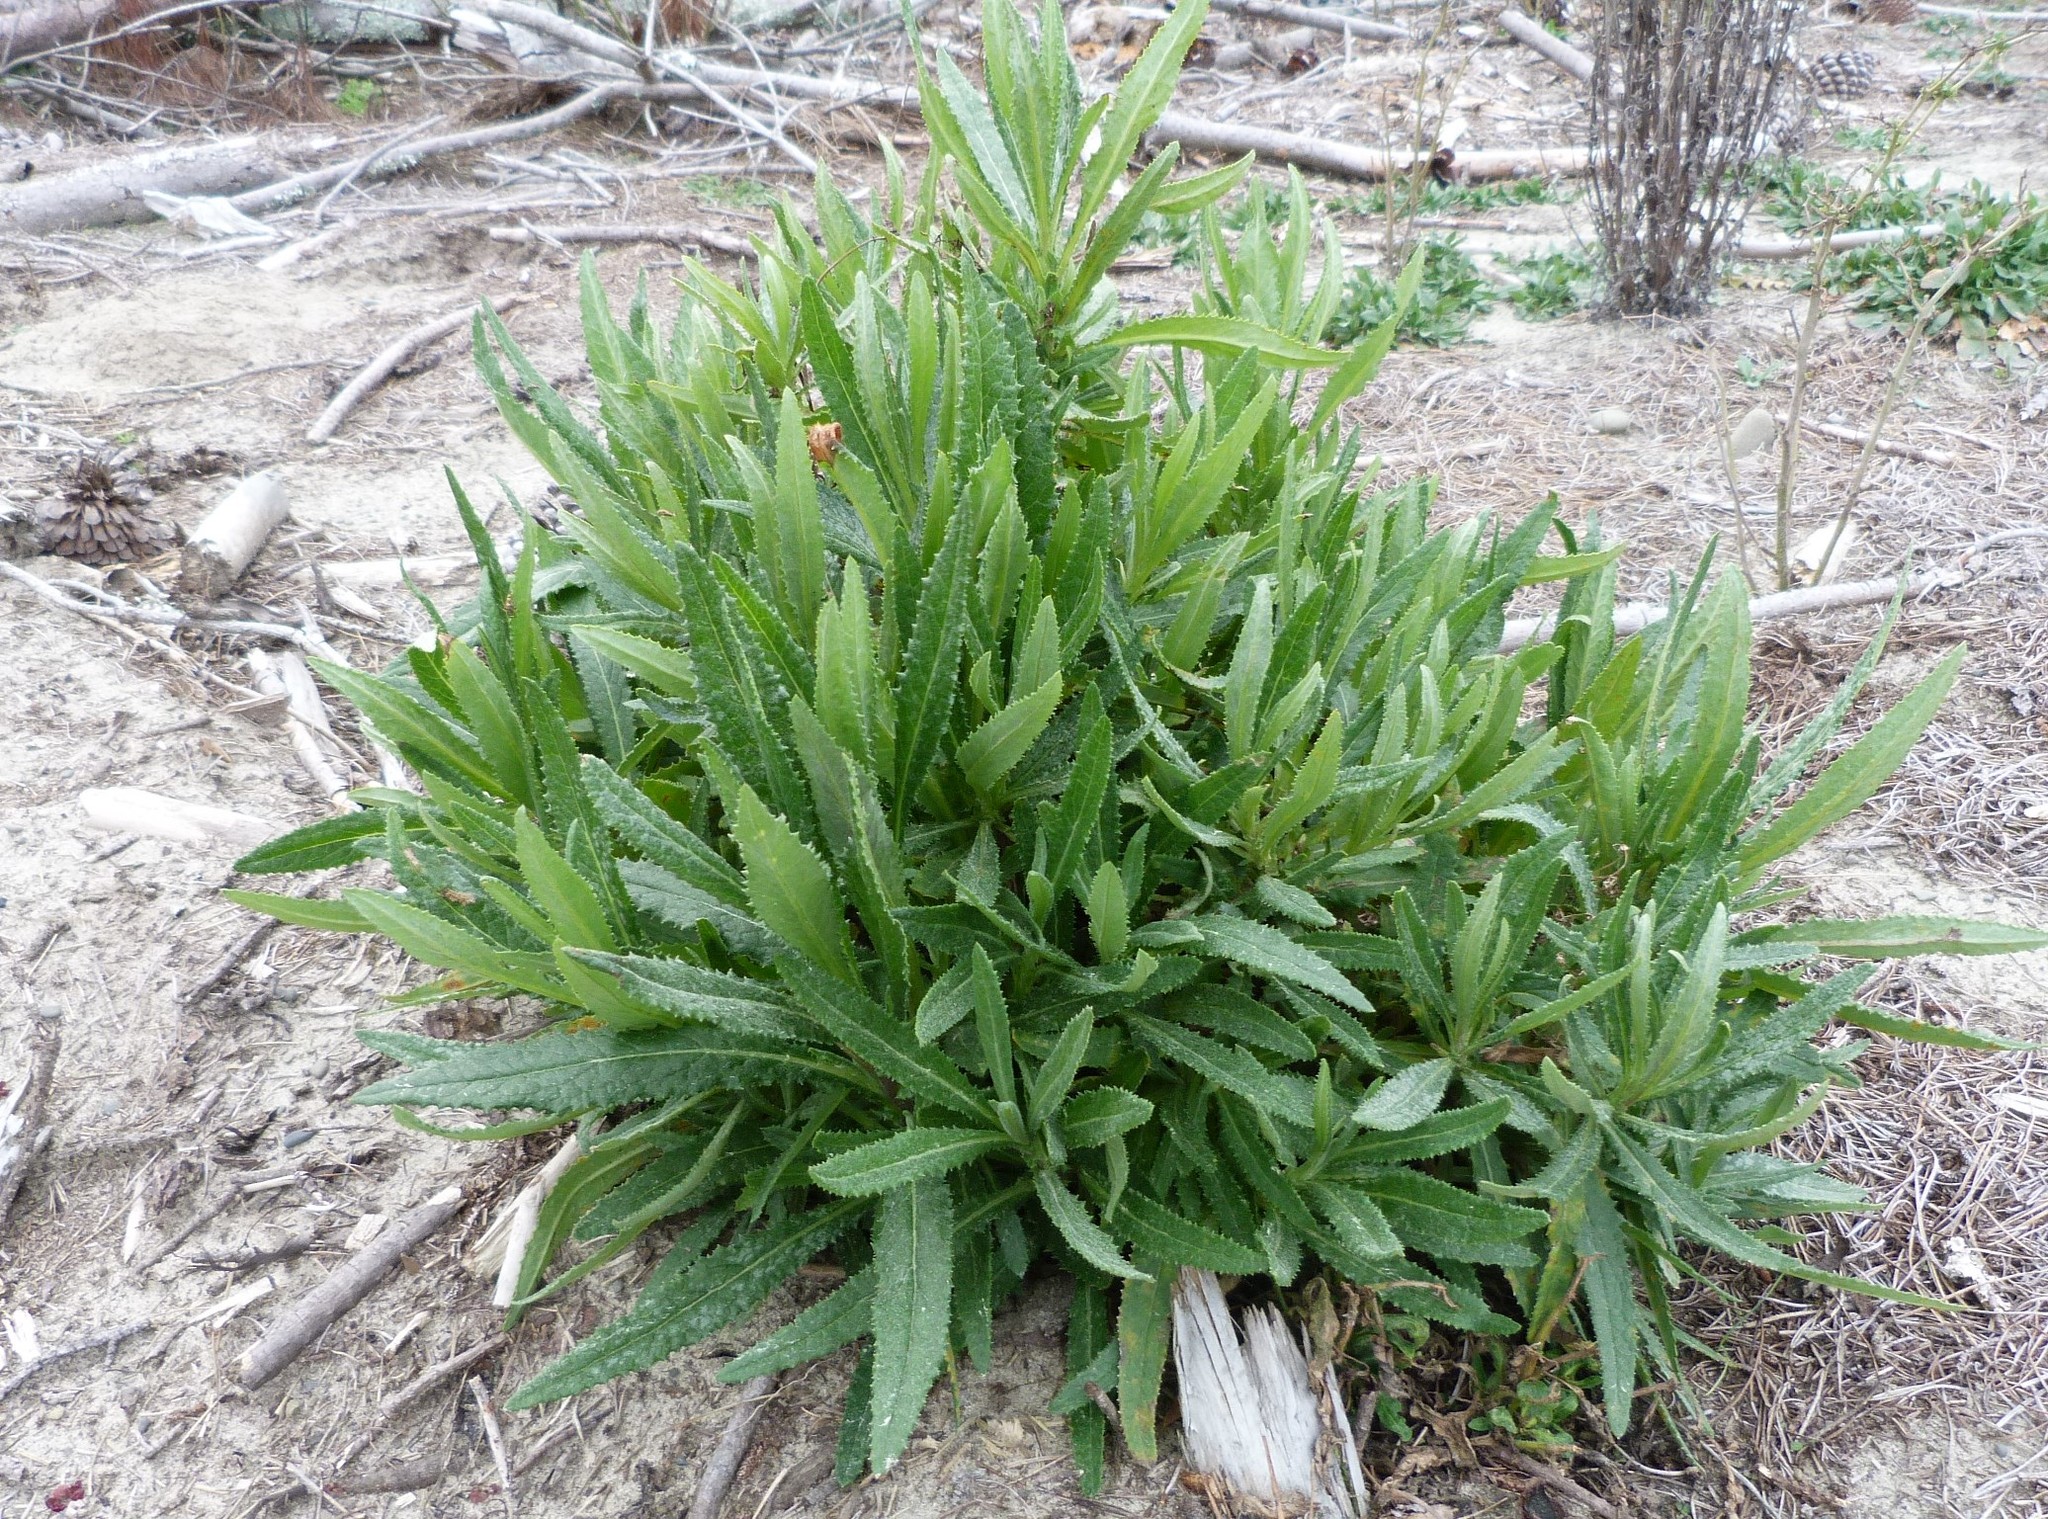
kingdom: Plantae
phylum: Tracheophyta
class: Magnoliopsida
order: Asterales
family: Asteraceae
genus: Senecio
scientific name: Senecio minimus
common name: Toothed fireweed
